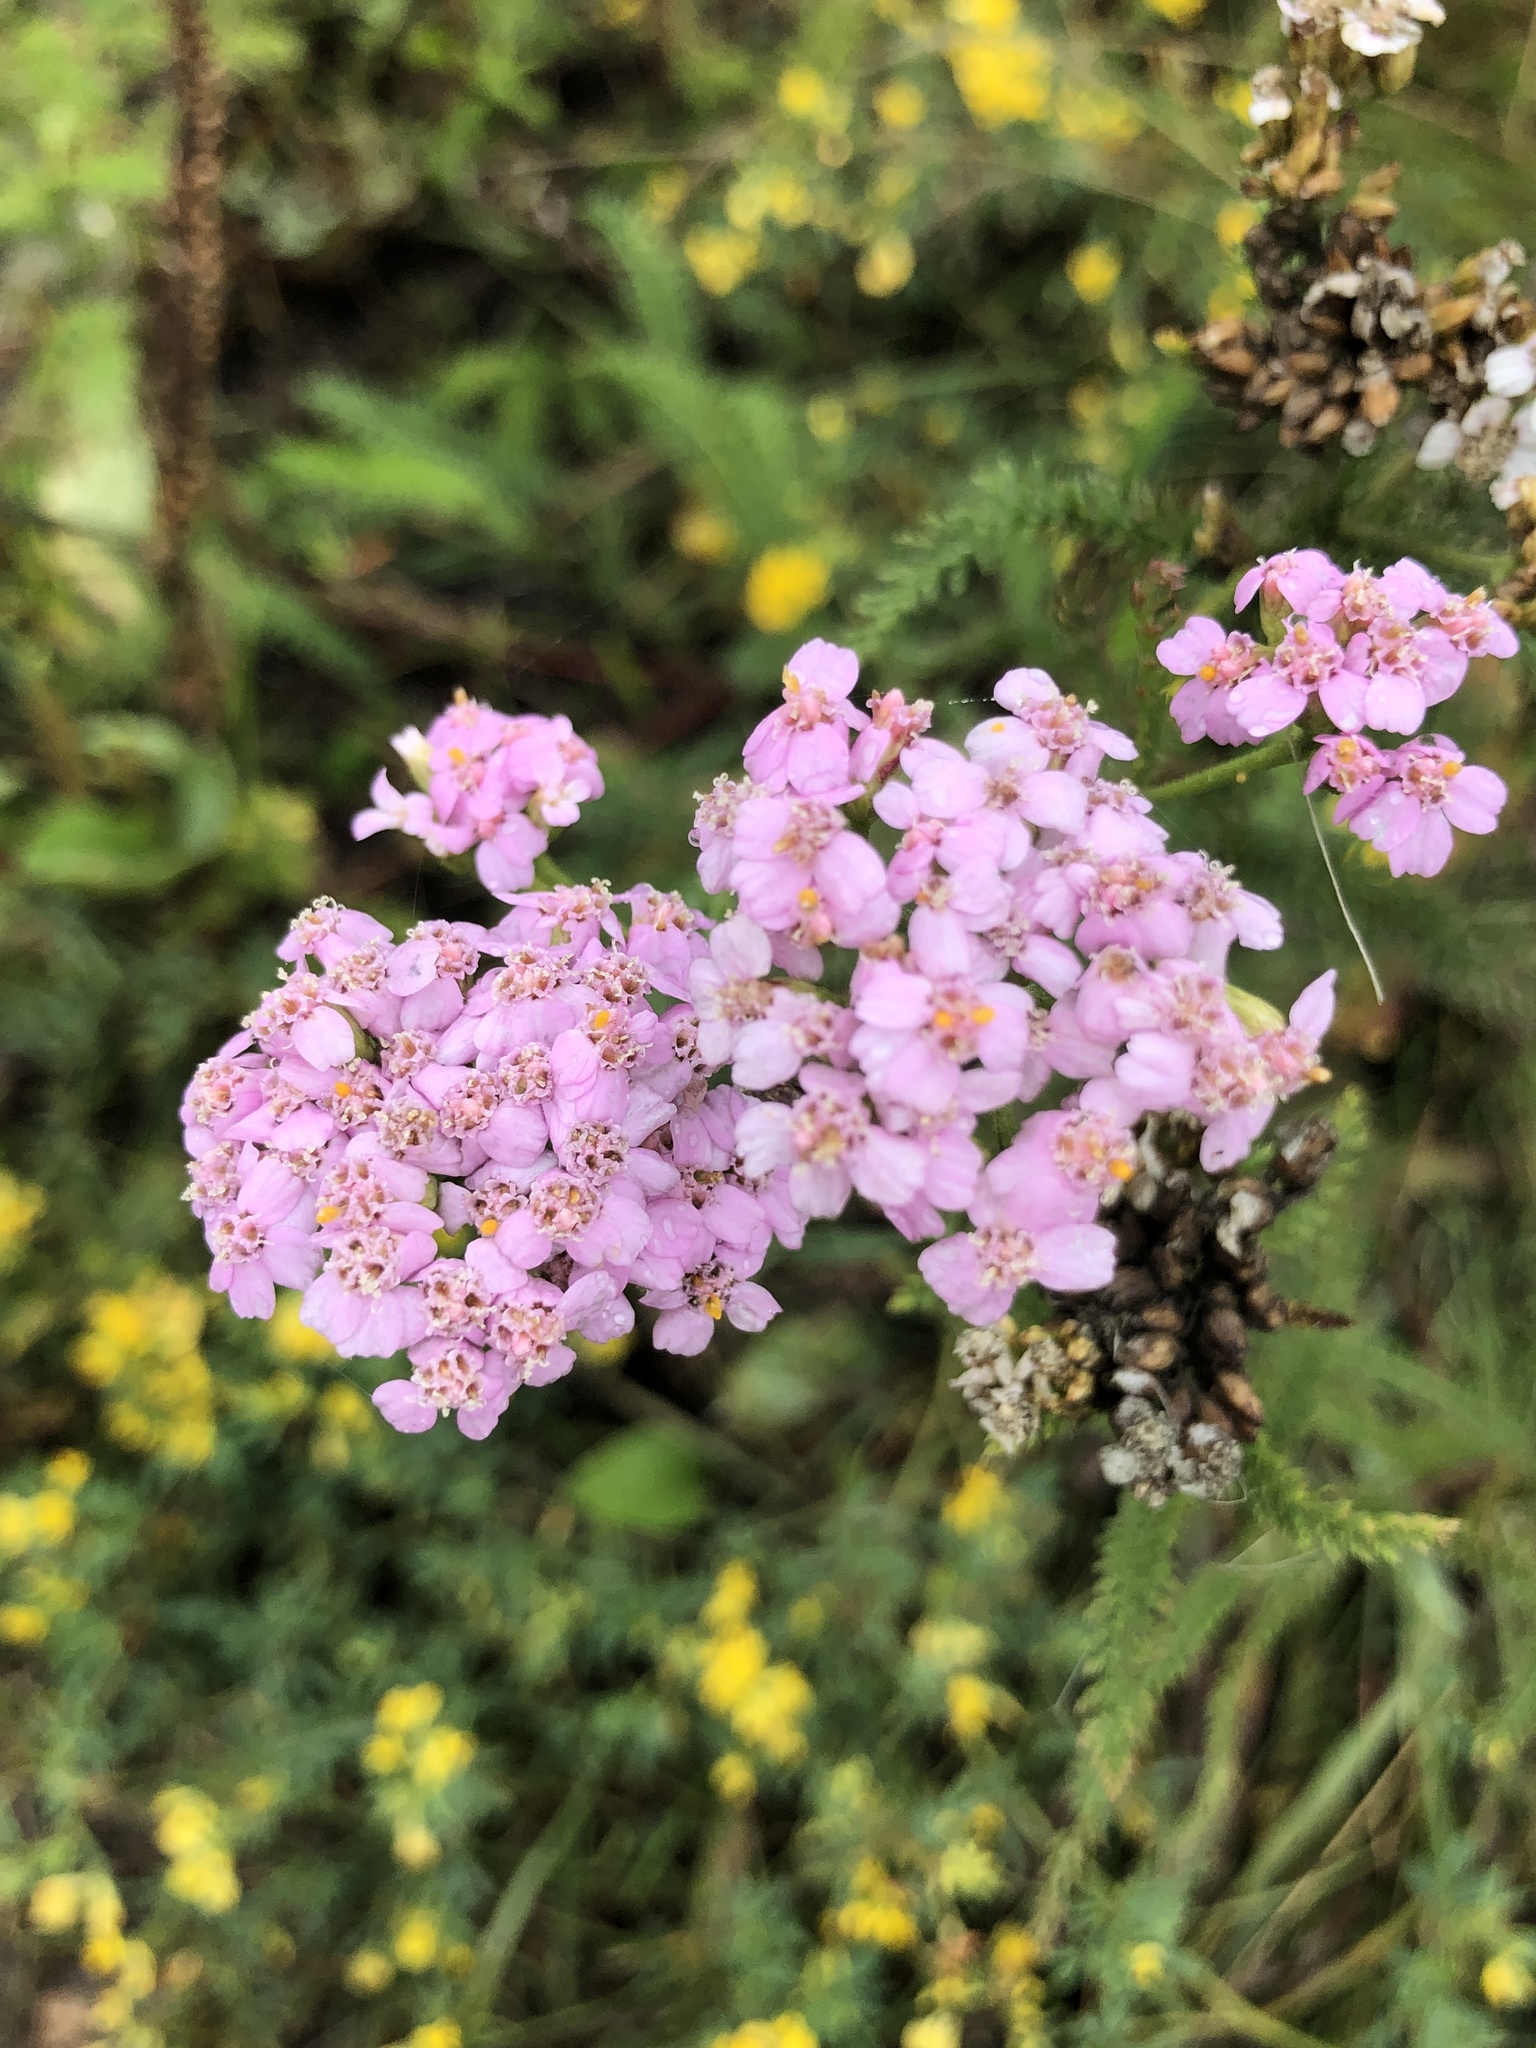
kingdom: Plantae
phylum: Tracheophyta
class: Magnoliopsida
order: Asterales
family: Asteraceae
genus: Achillea
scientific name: Achillea millefolium
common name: Yarrow
